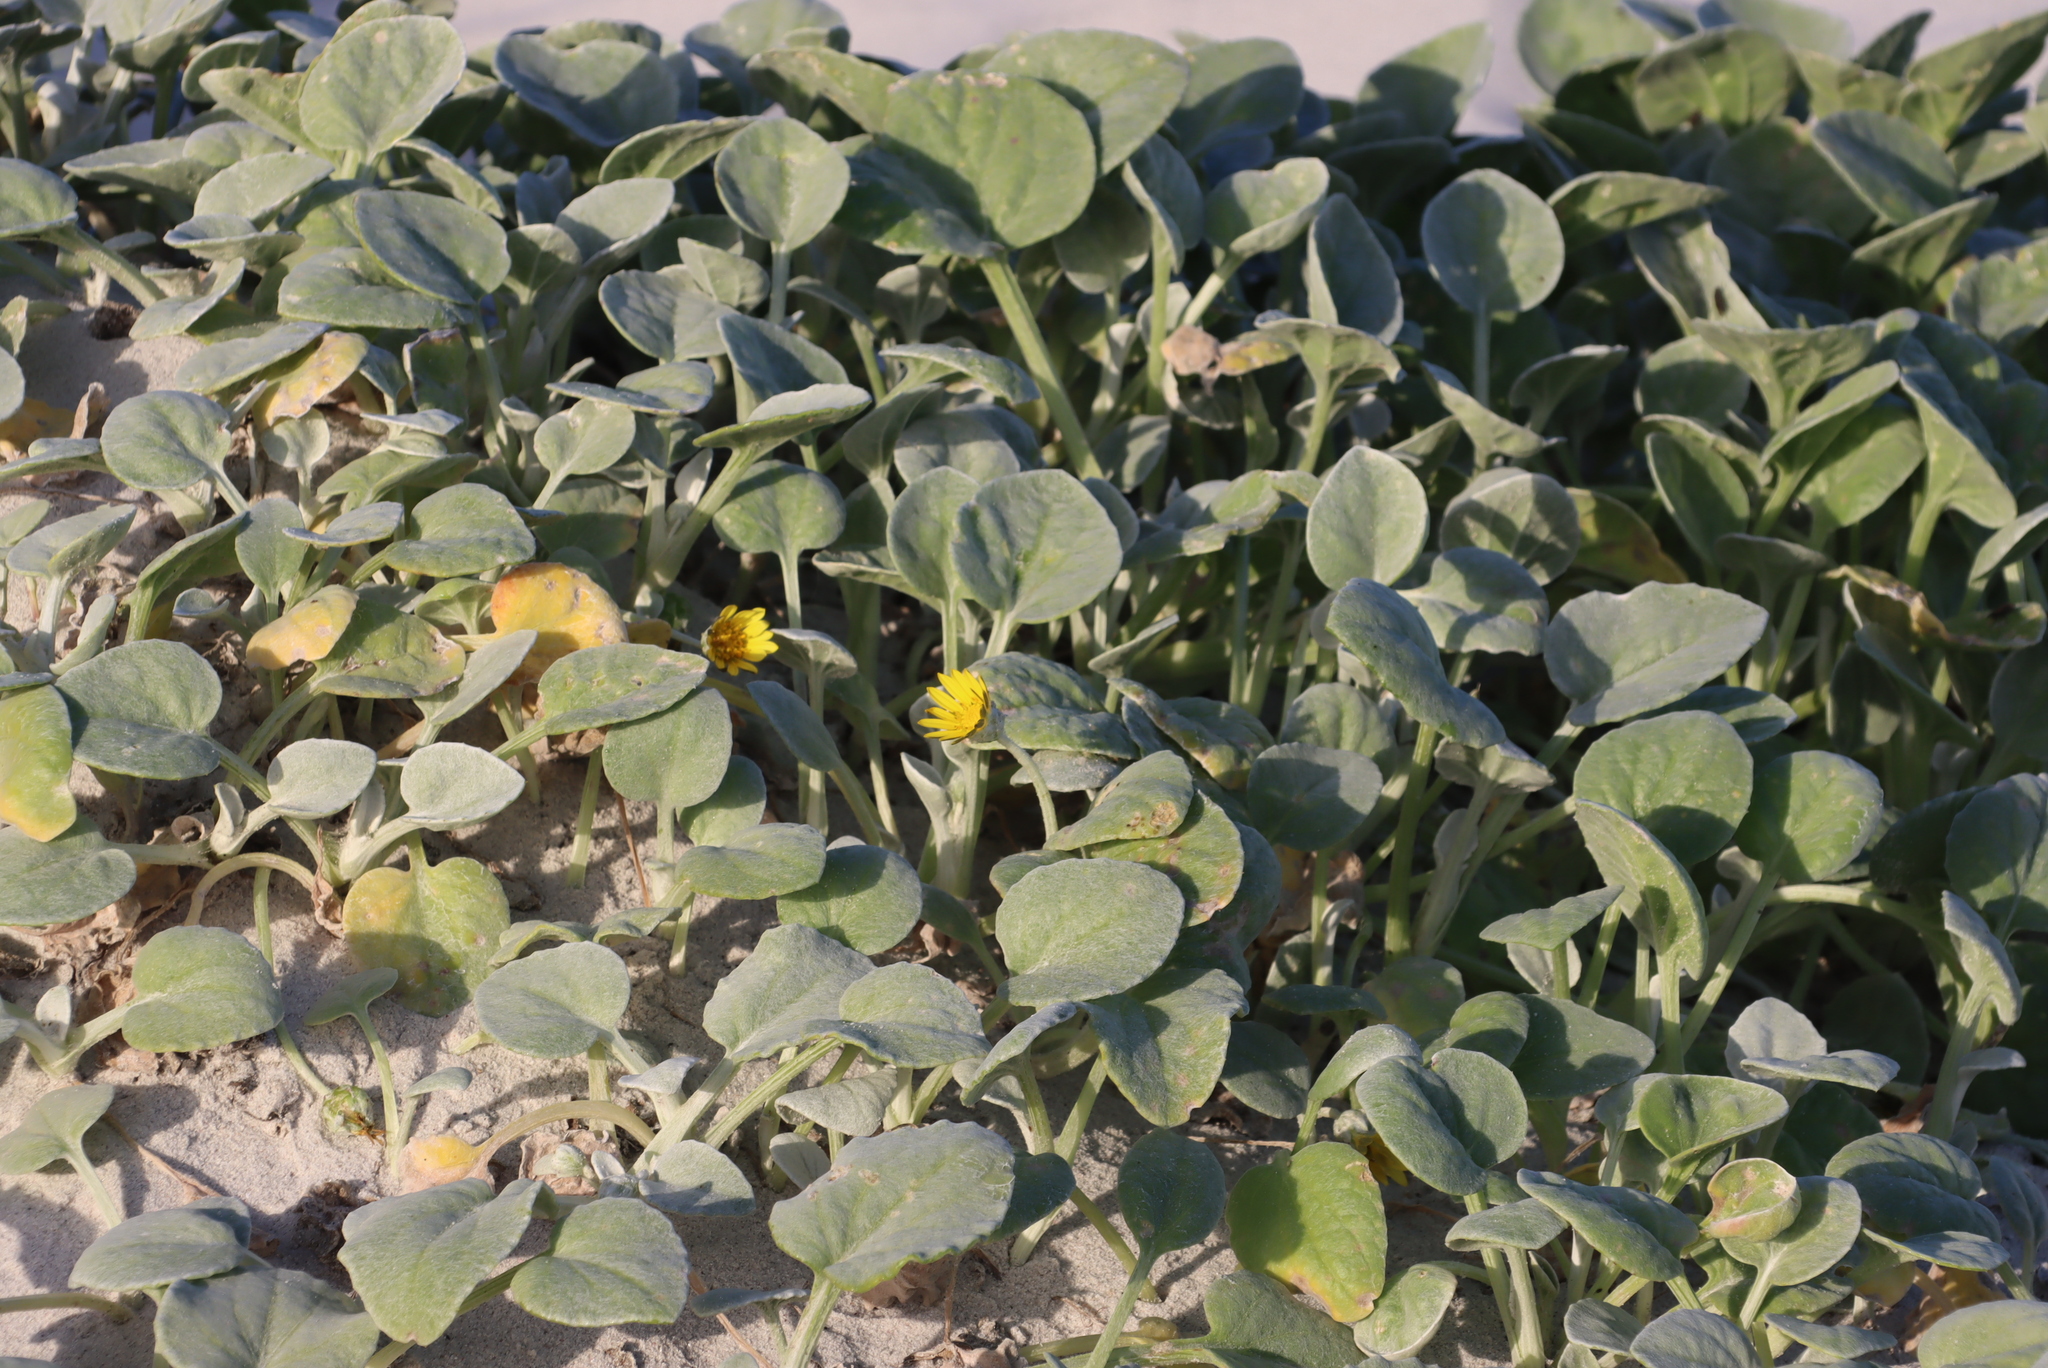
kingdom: Plantae
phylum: Tracheophyta
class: Magnoliopsida
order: Asterales
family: Asteraceae
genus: Arctotheca
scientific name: Arctotheca populifolia
